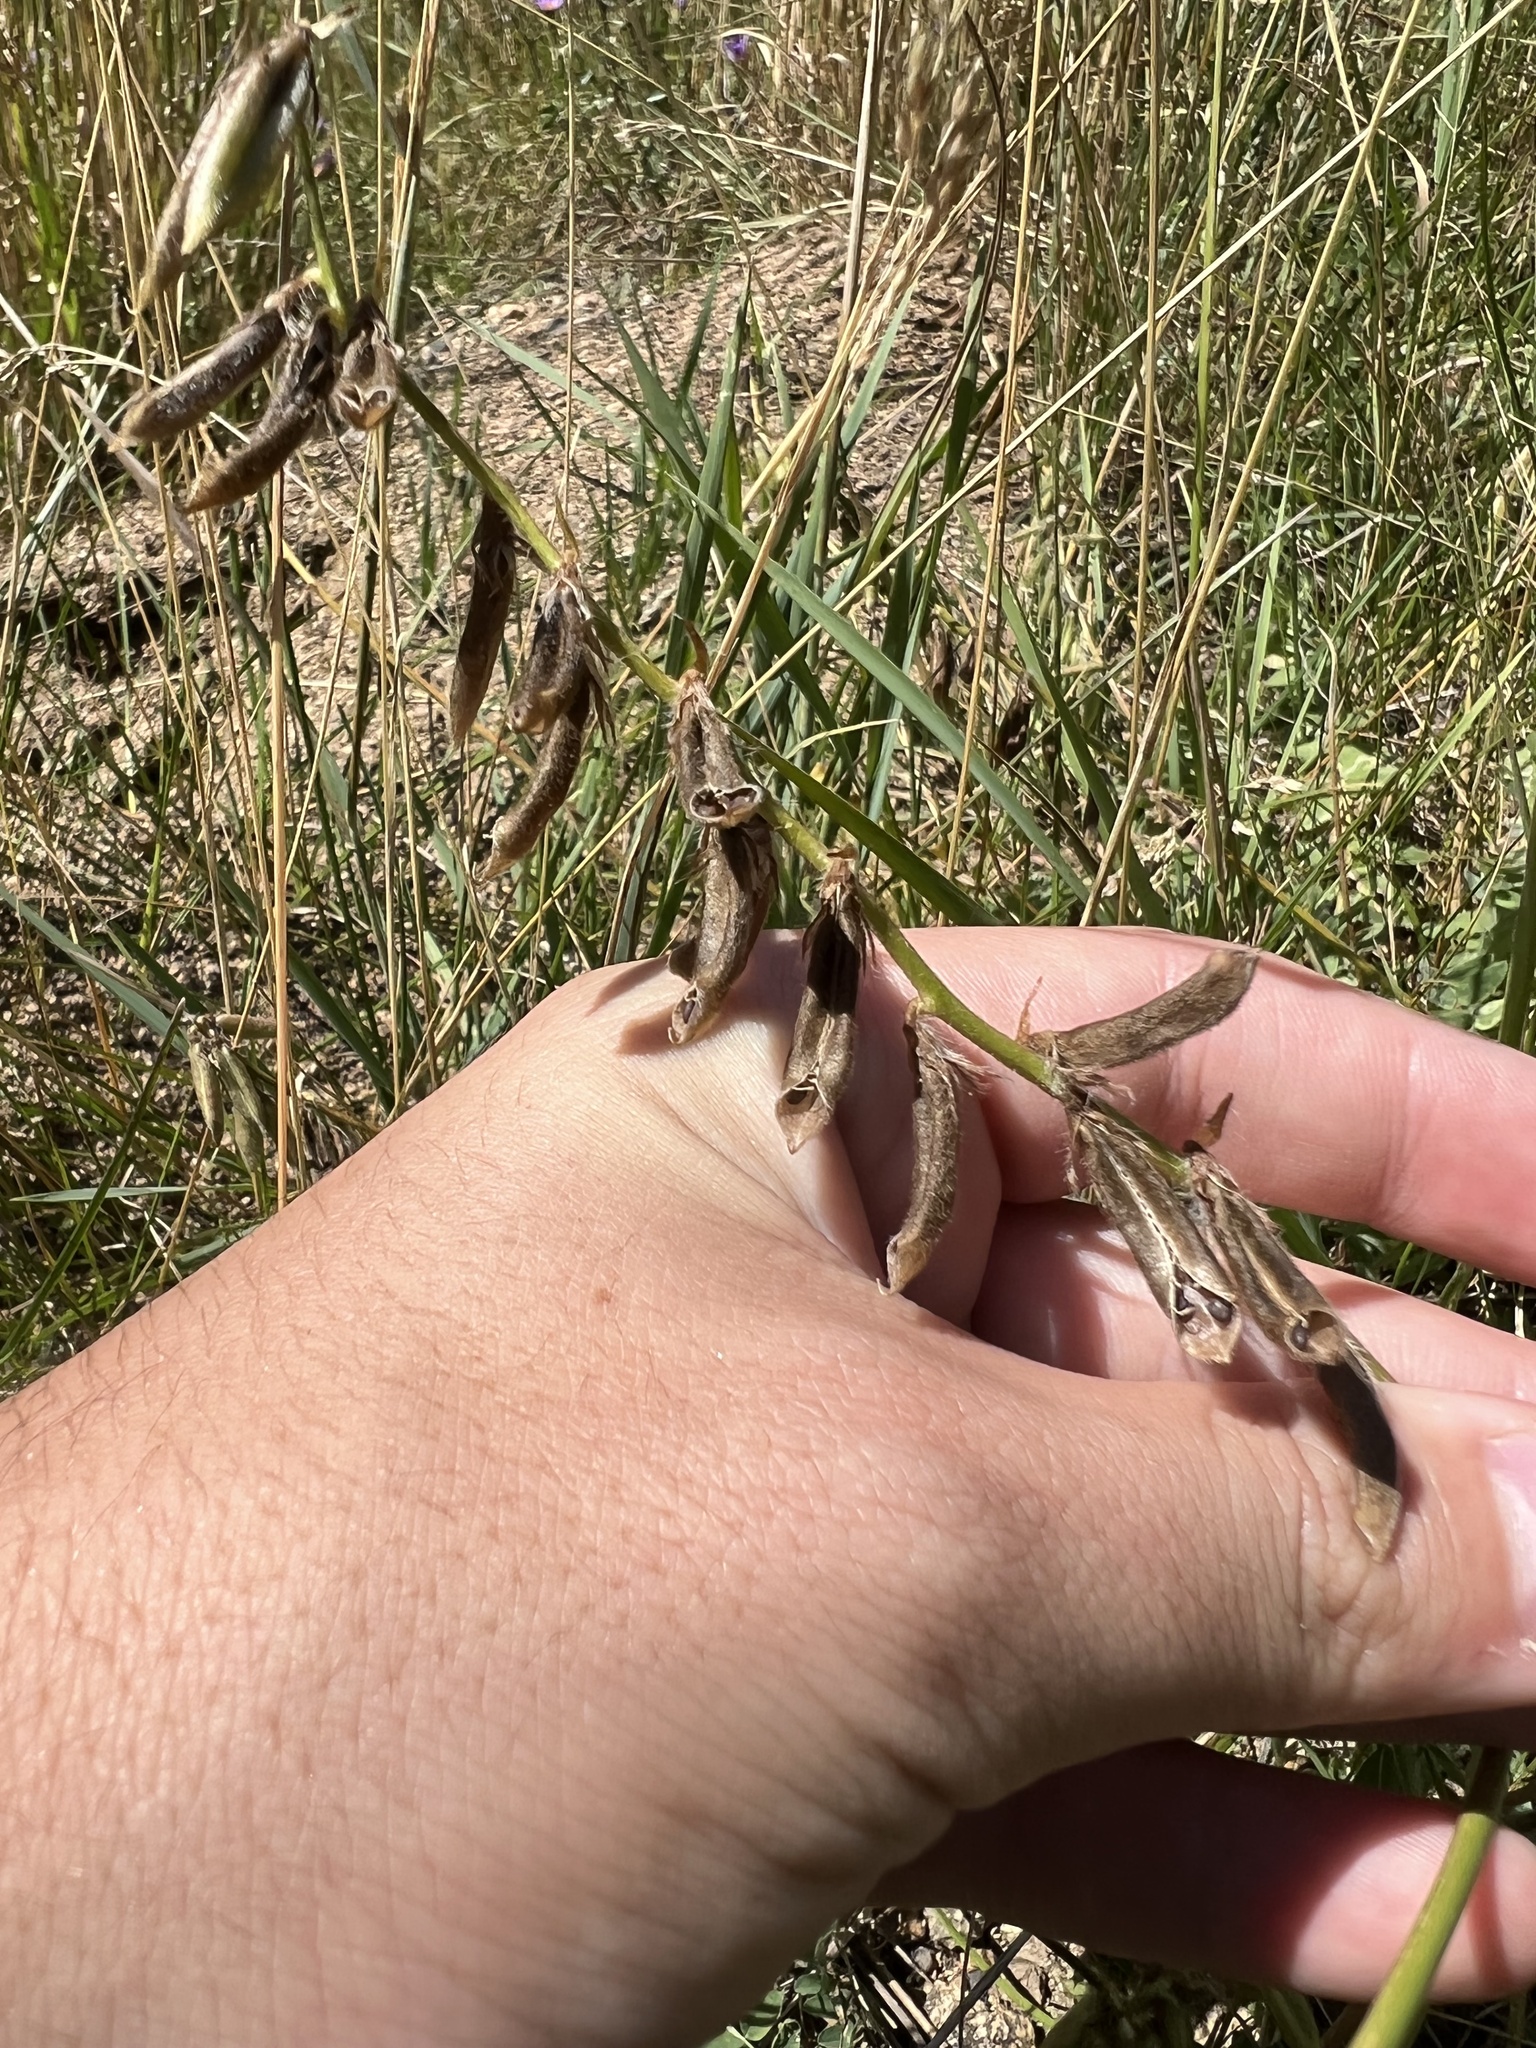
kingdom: Plantae
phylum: Tracheophyta
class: Magnoliopsida
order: Fabales
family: Fabaceae
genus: Oxytropis
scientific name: Oxytropis deflexa
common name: Stemmed oxytrope
